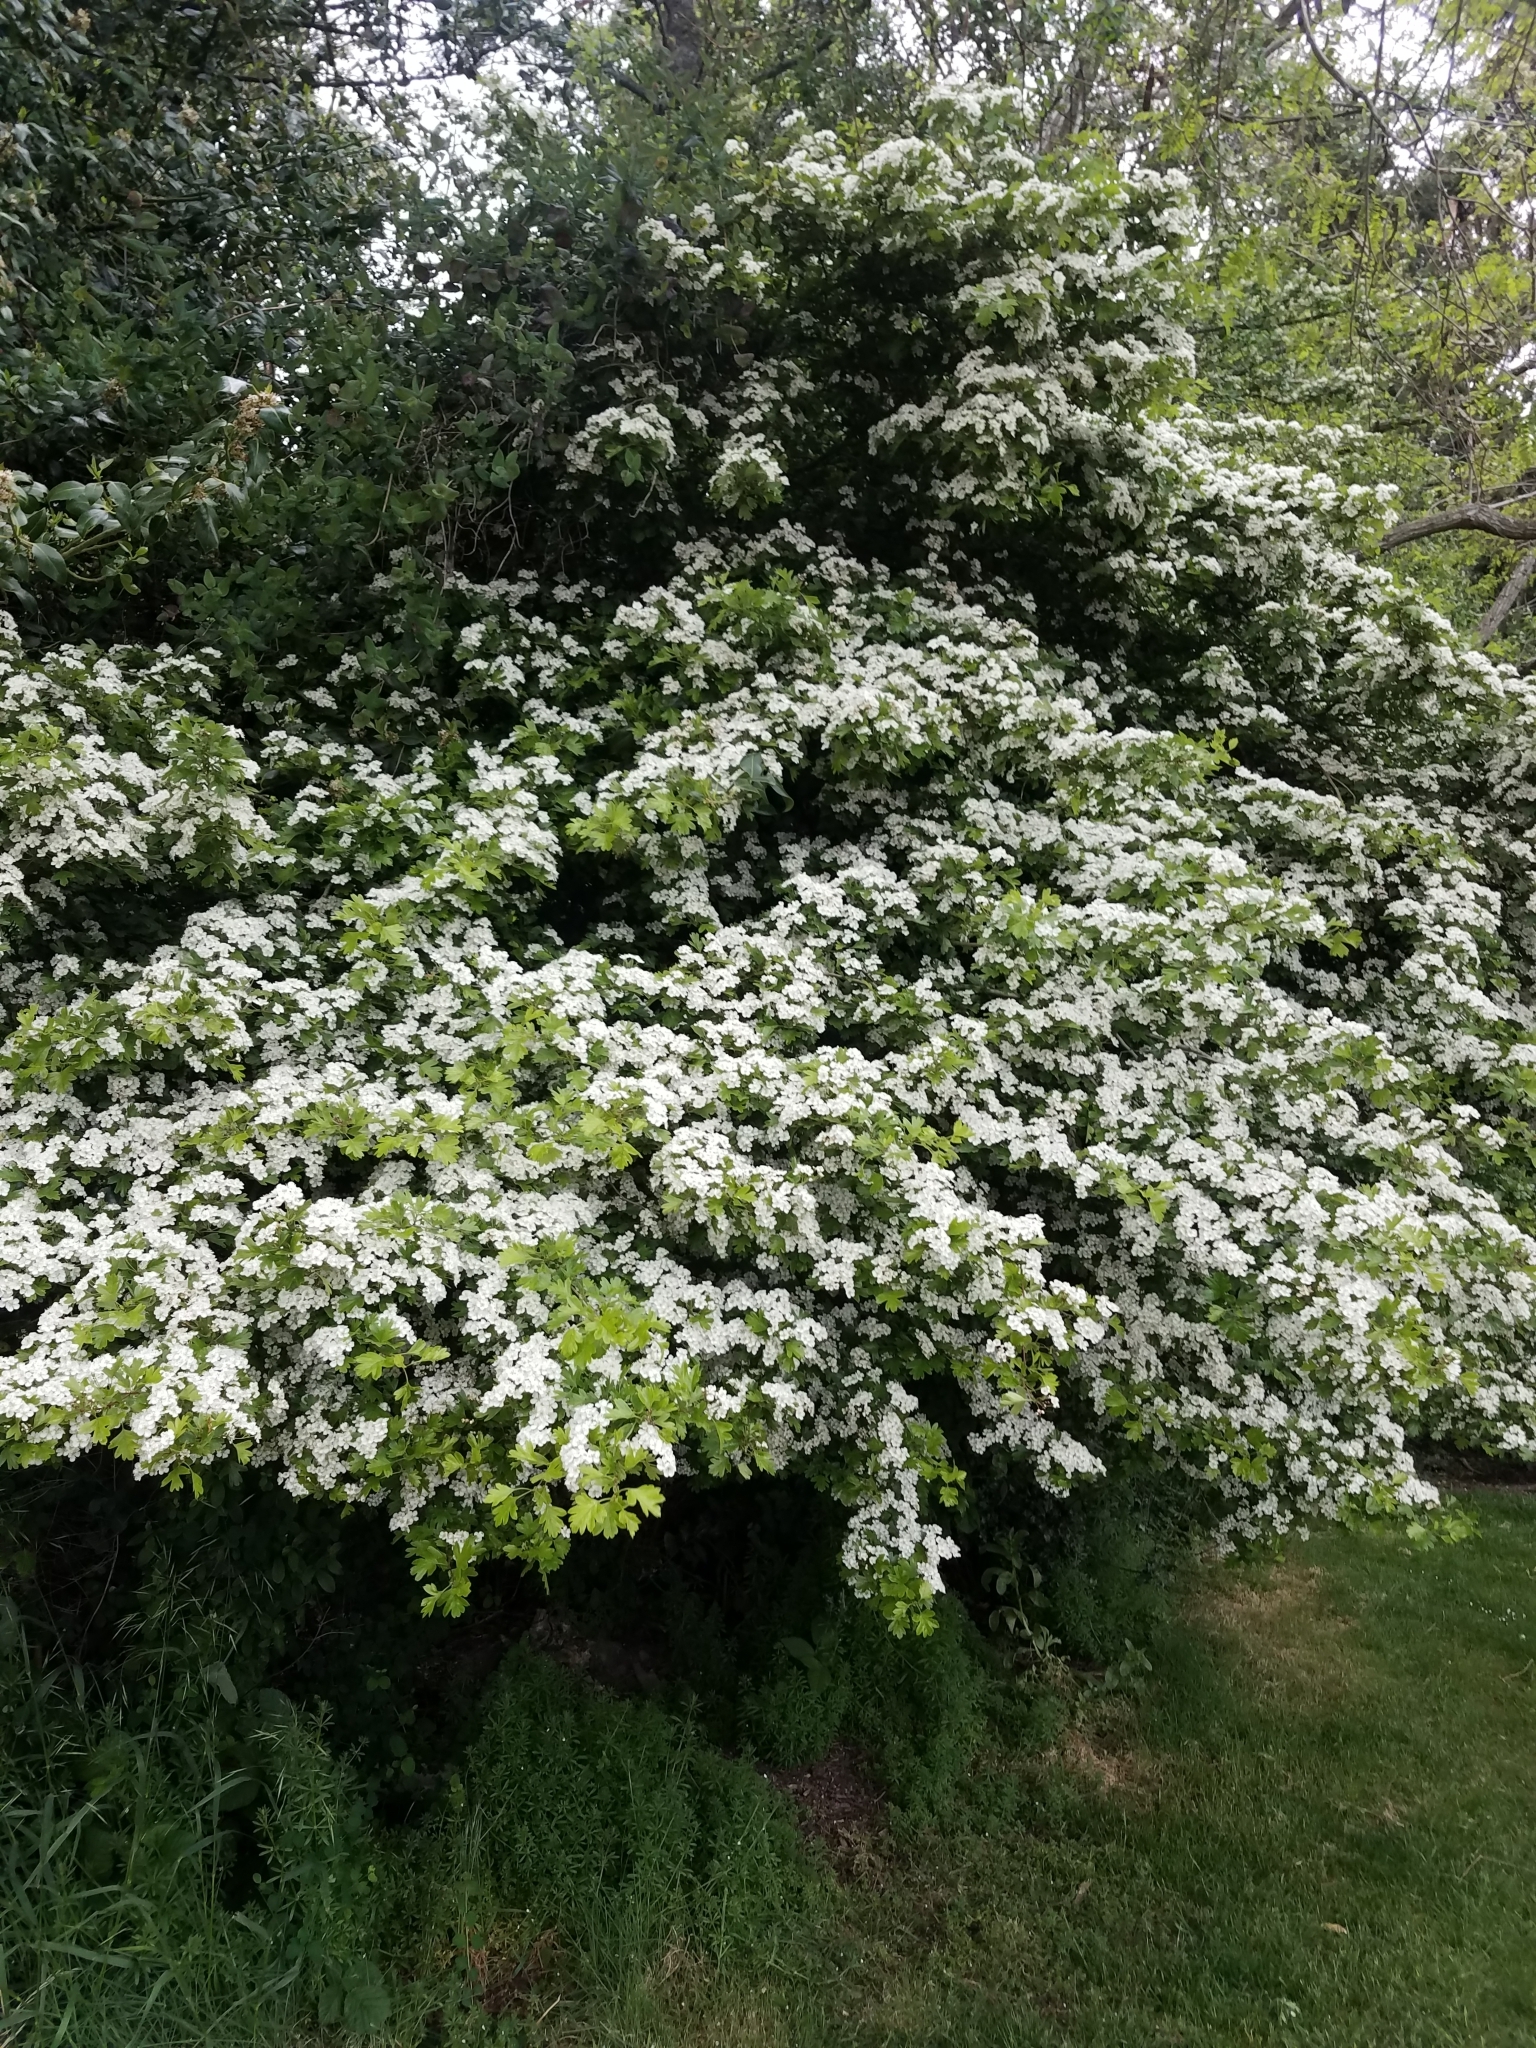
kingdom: Plantae
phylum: Tracheophyta
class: Magnoliopsida
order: Rosales
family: Rosaceae
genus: Crataegus
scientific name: Crataegus monogyna
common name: Hawthorn
